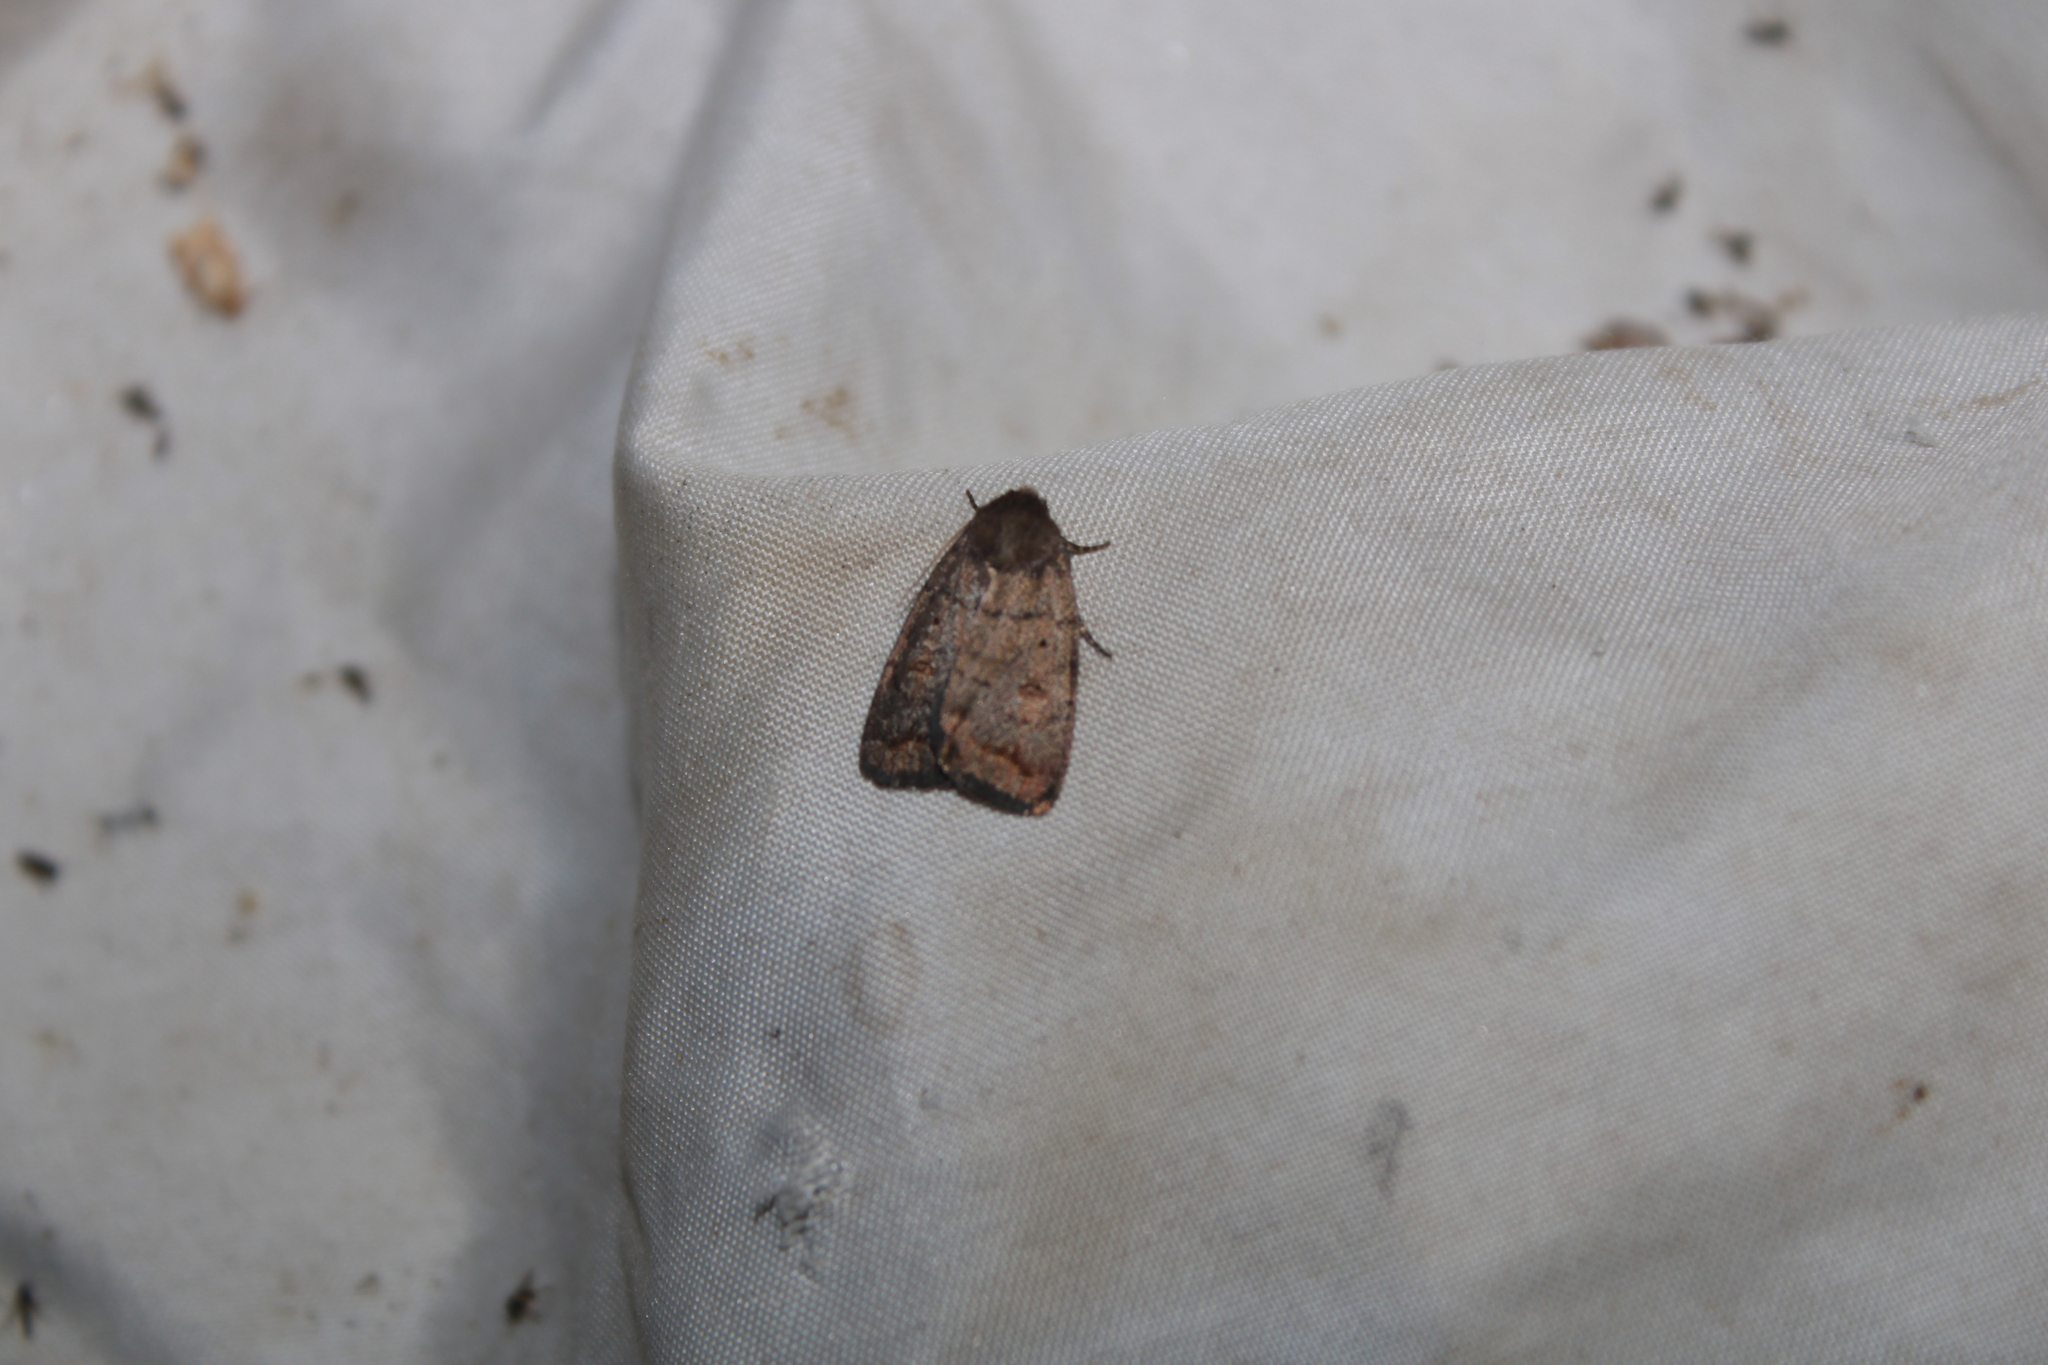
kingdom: Animalia
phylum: Arthropoda
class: Insecta
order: Lepidoptera
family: Noctuidae
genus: Athetis
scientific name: Athetis tarda
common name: Slowpoke moth
